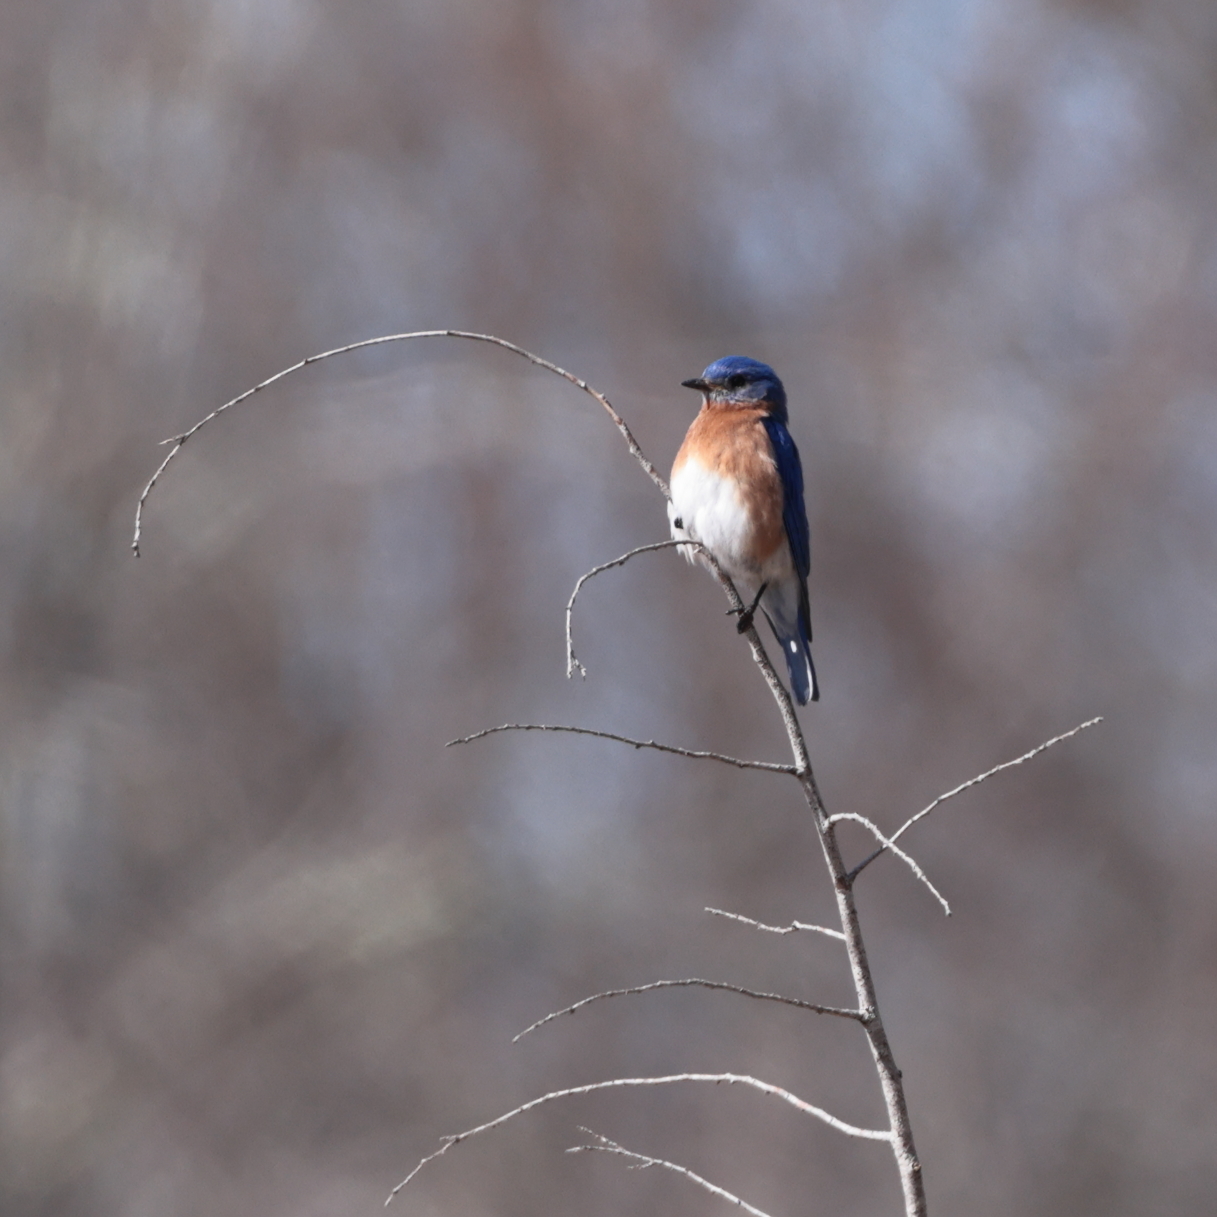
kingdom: Animalia
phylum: Chordata
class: Aves
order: Passeriformes
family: Turdidae
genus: Sialia
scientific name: Sialia sialis
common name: Eastern bluebird
